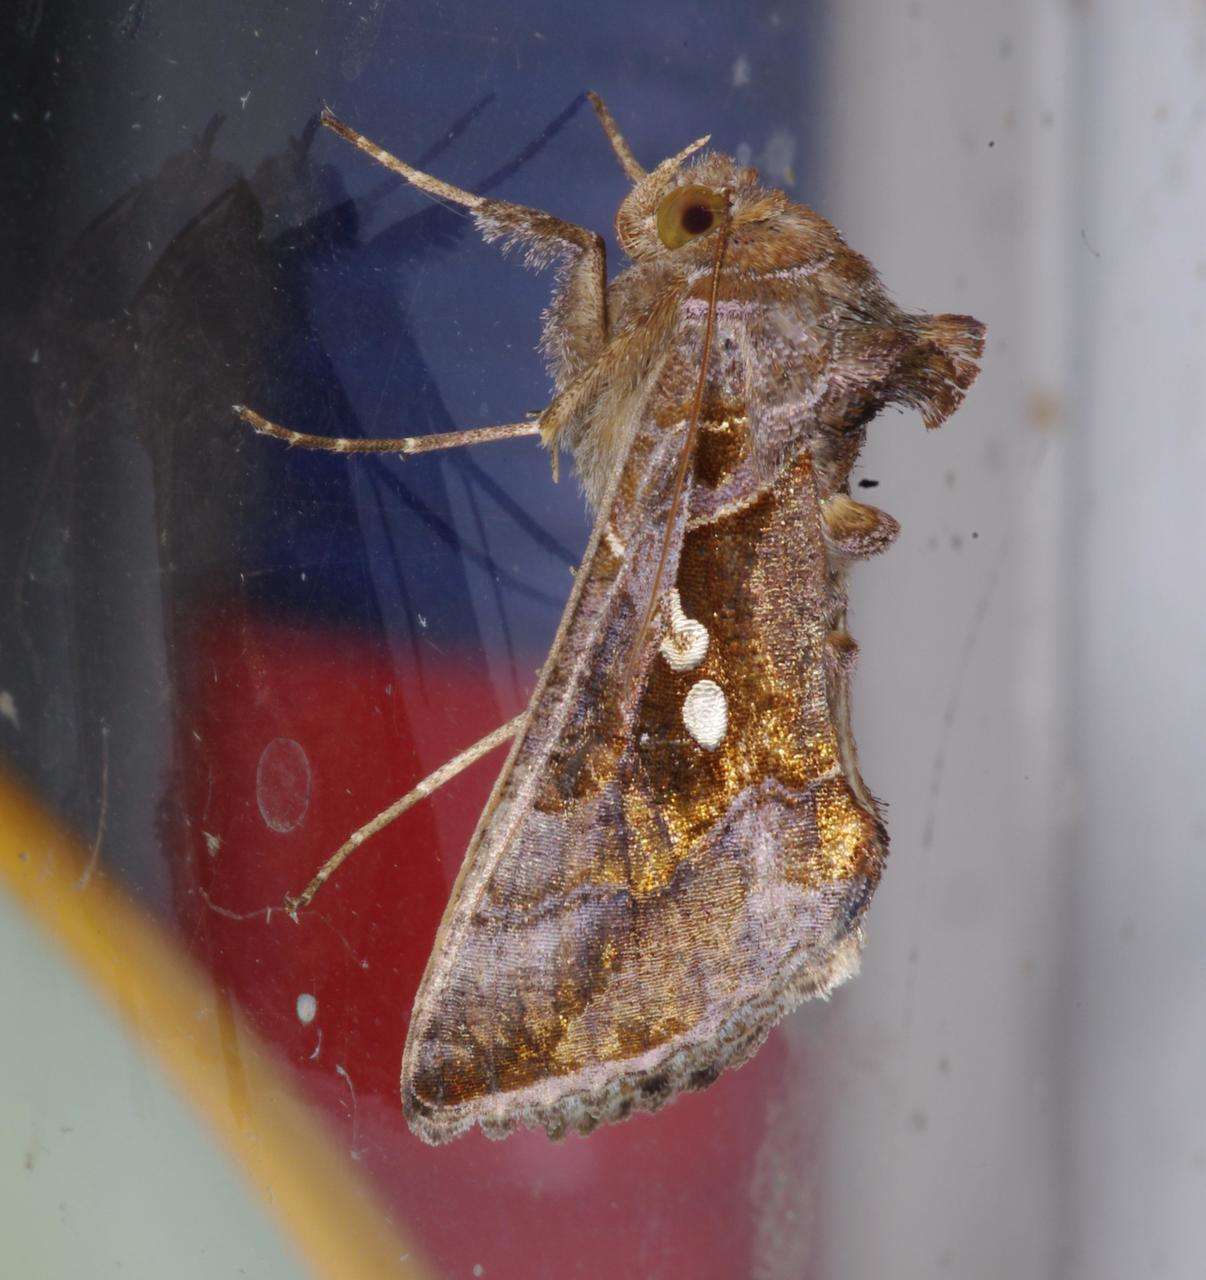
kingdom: Animalia
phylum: Arthropoda
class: Insecta
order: Lepidoptera
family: Noctuidae
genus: Chrysodeixis
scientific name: Chrysodeixis subsidens
